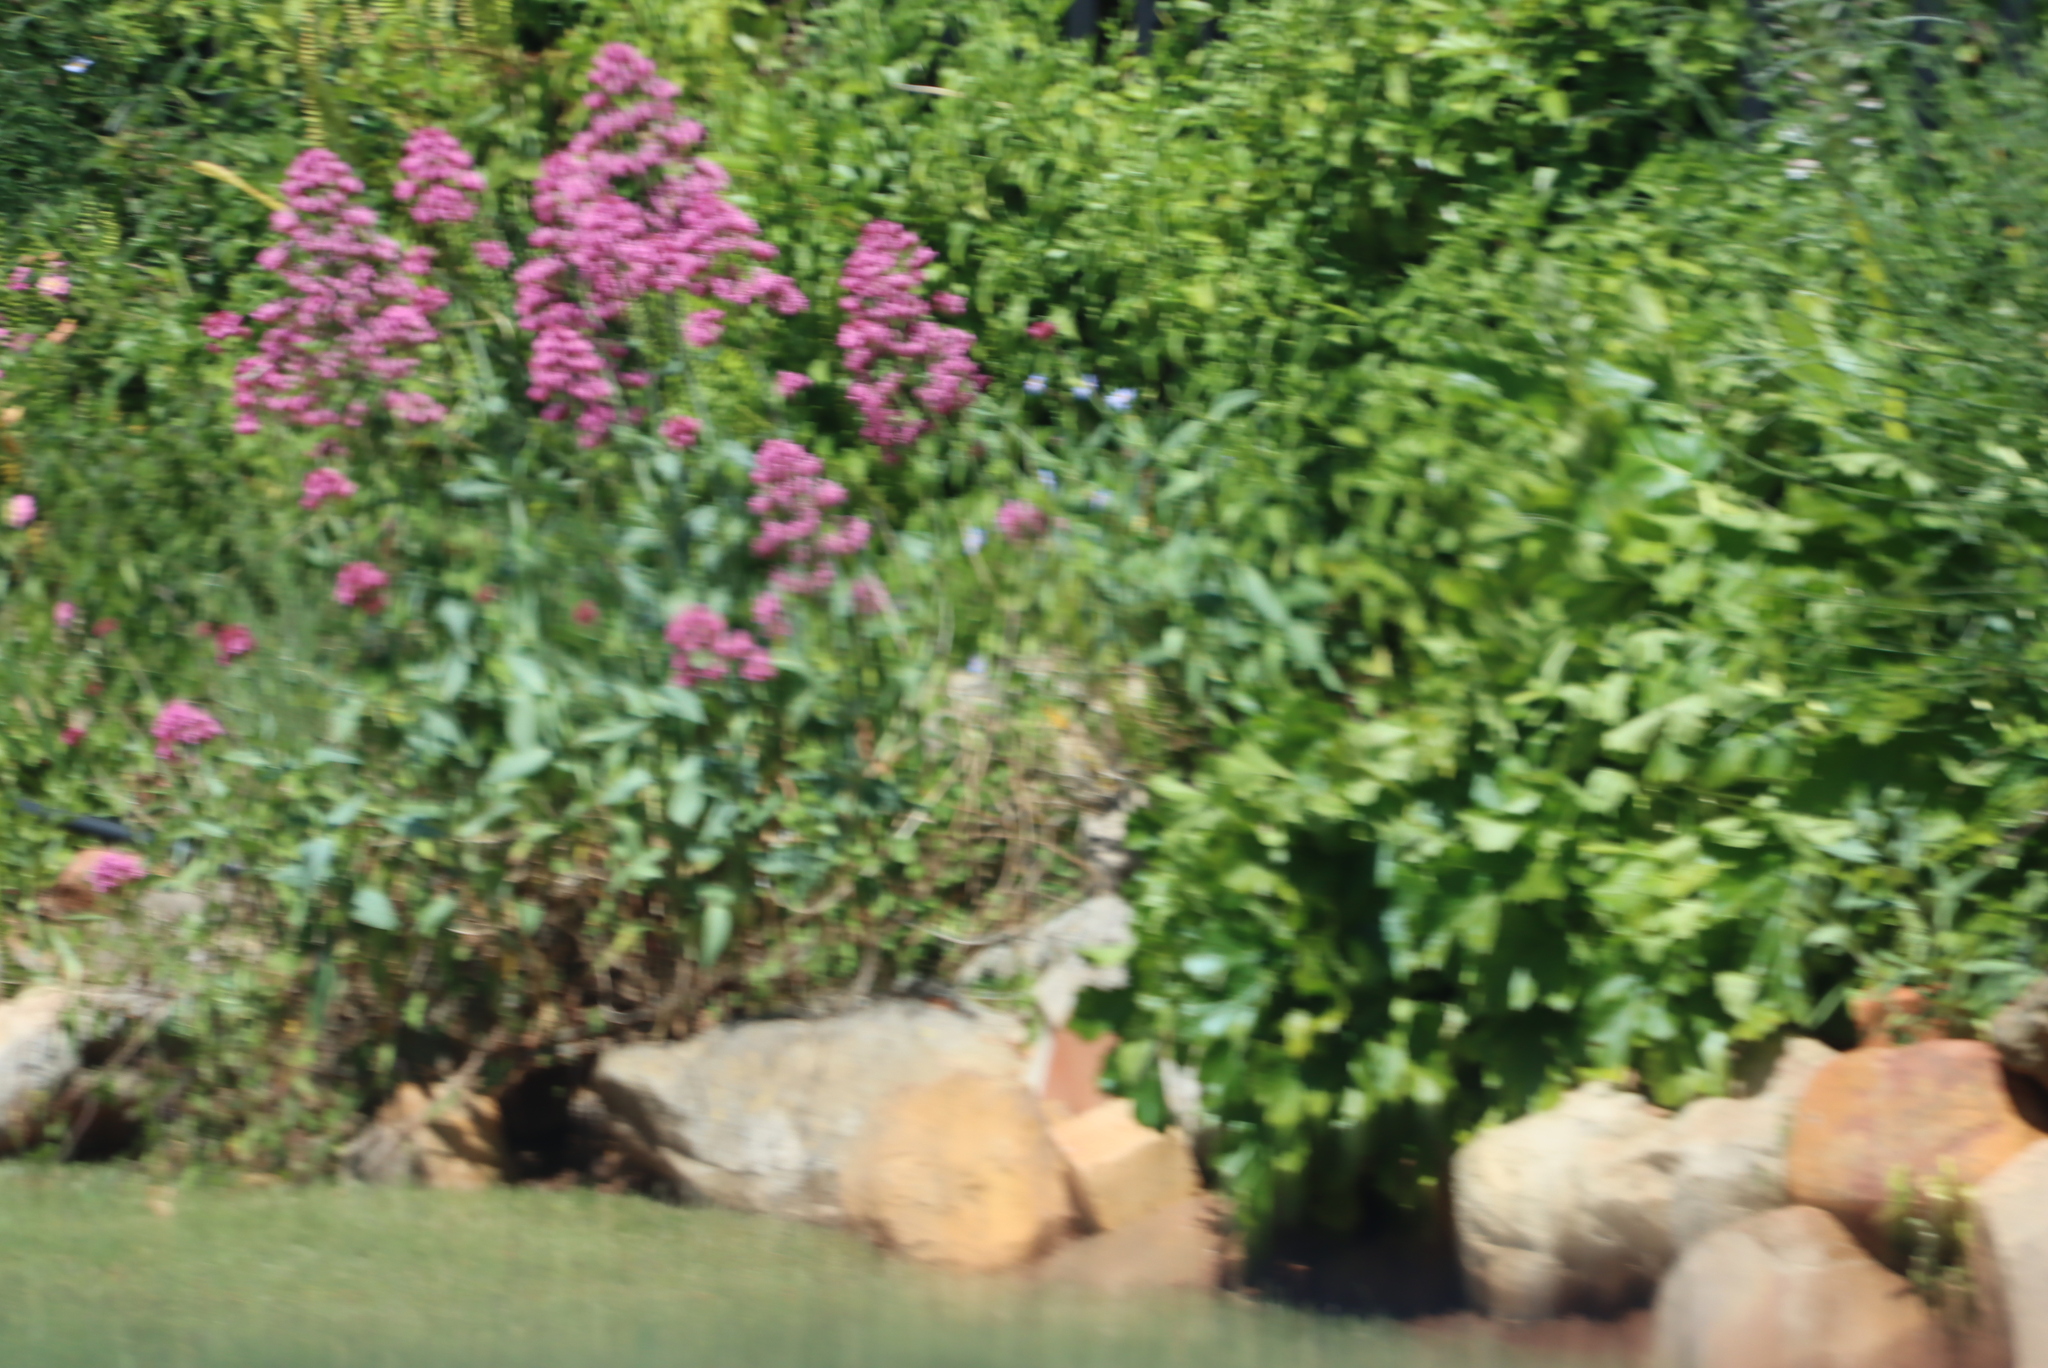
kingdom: Plantae
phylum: Tracheophyta
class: Magnoliopsida
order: Dipsacales
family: Caprifoliaceae
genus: Centranthus
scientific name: Centranthus ruber
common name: Red valerian
